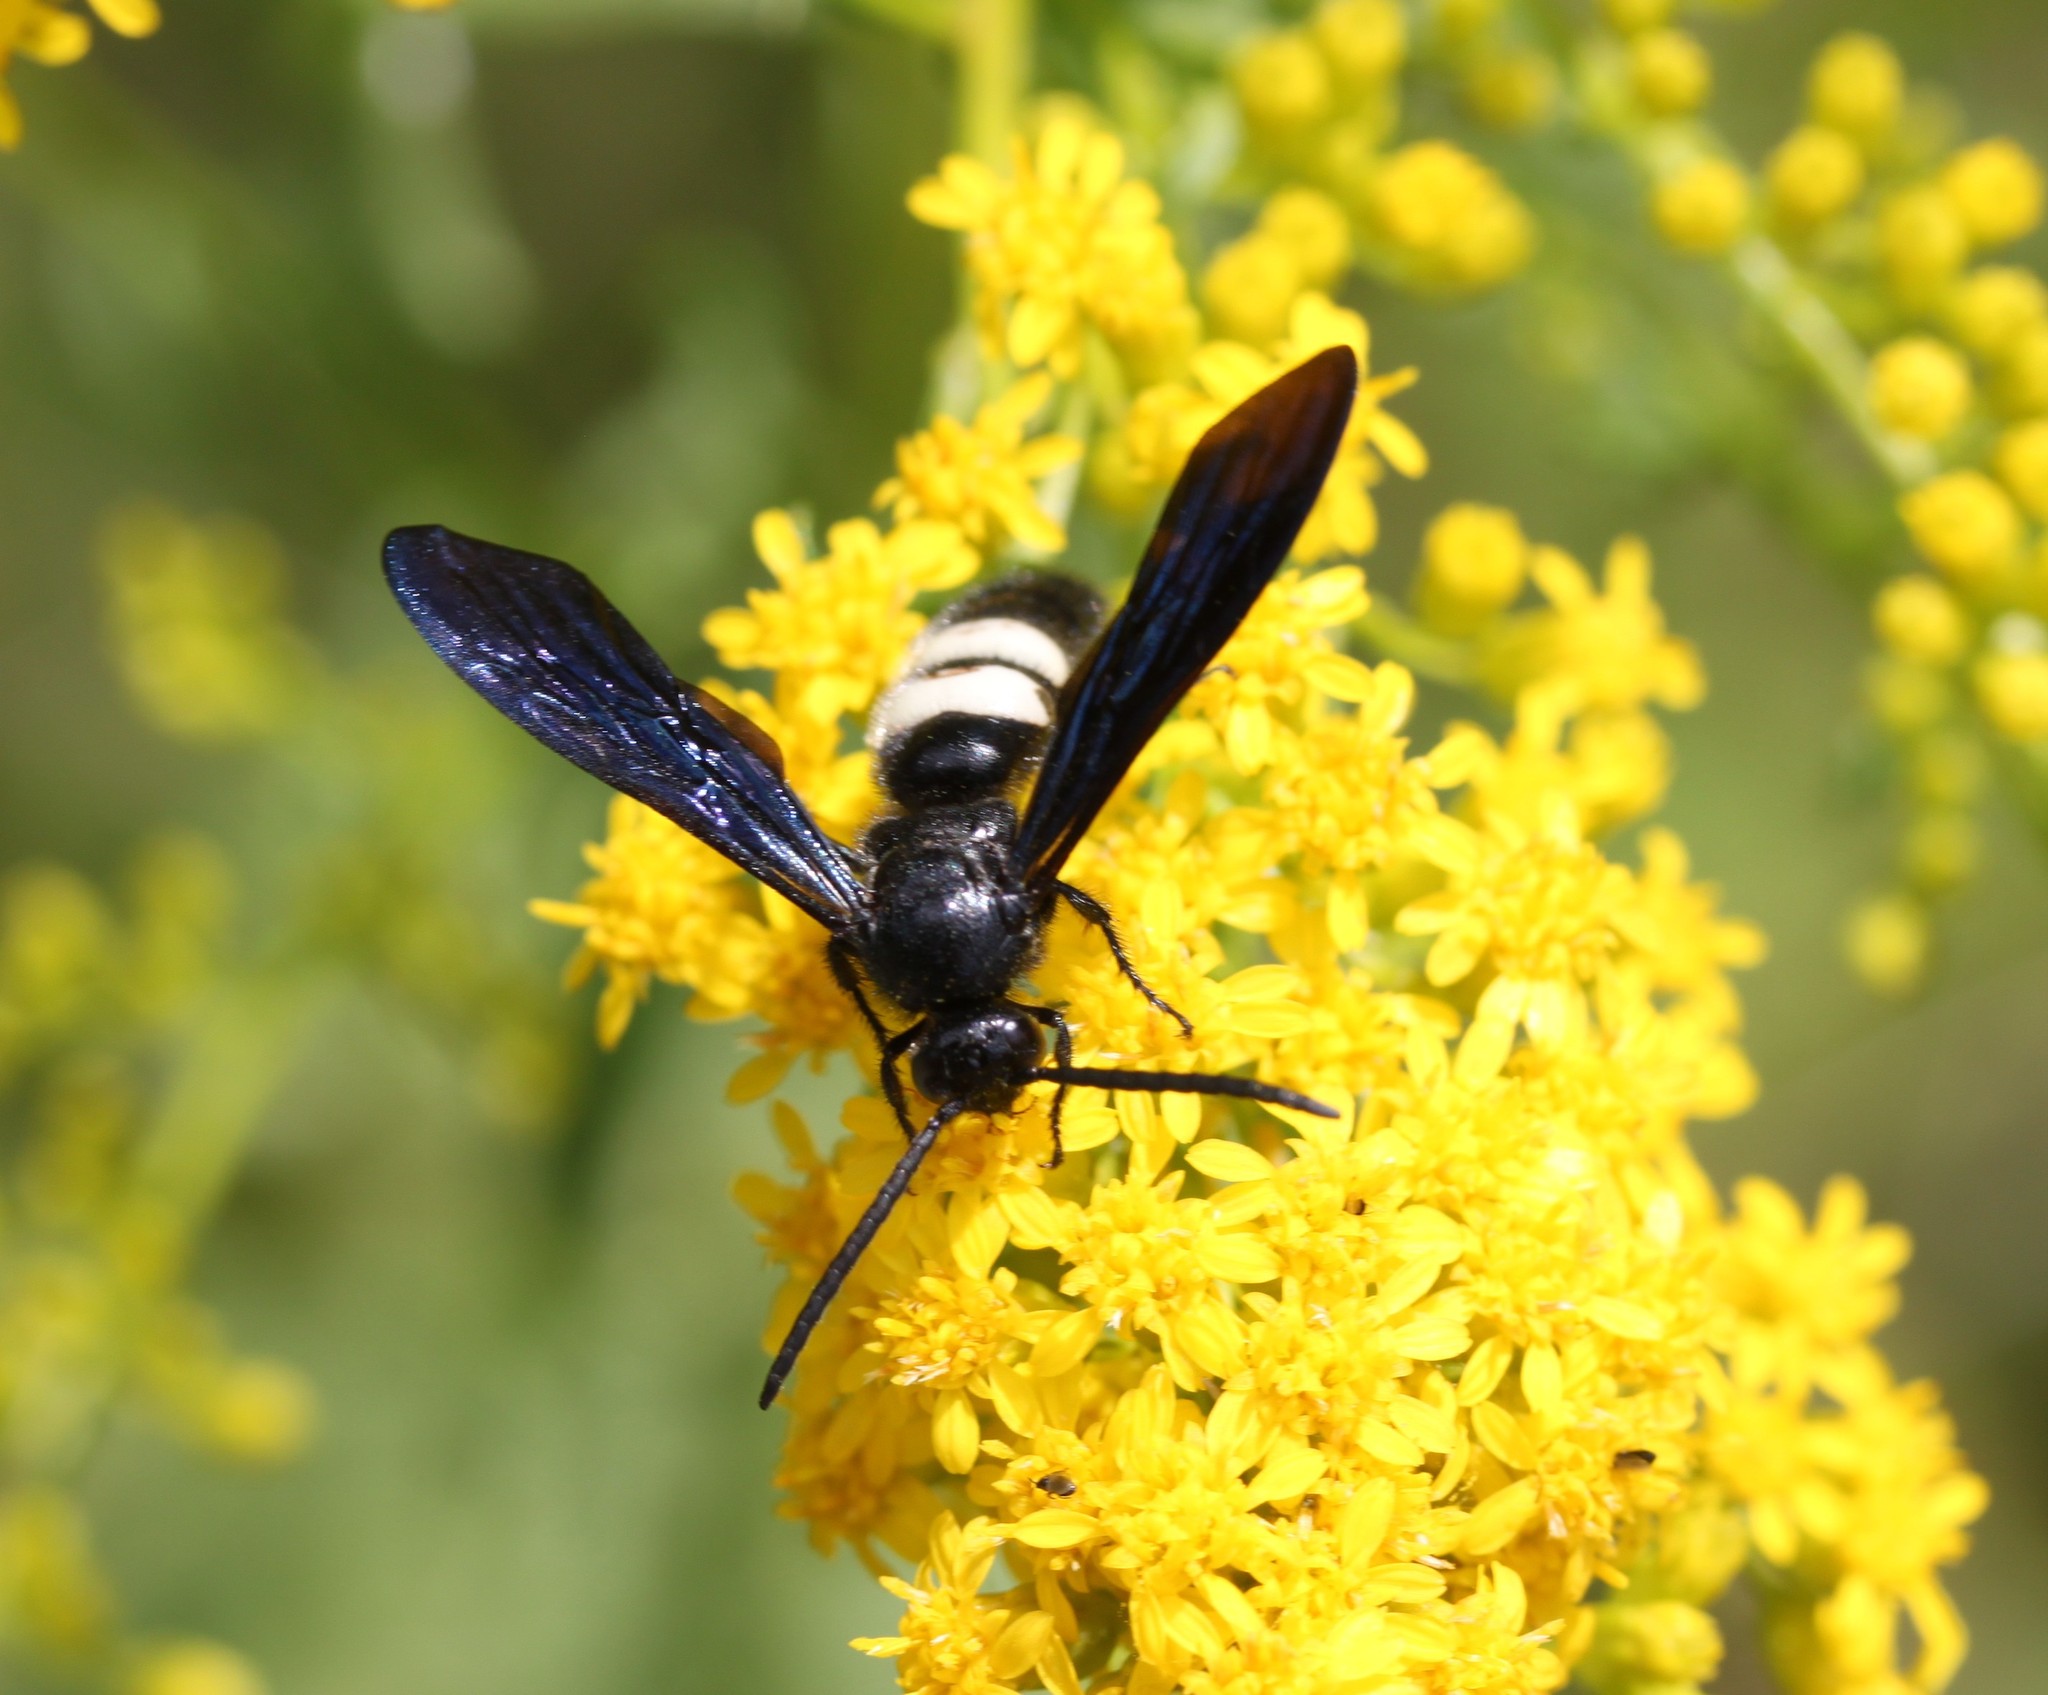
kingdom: Animalia
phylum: Arthropoda
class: Insecta
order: Hymenoptera
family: Scoliidae
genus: Scolia
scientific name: Scolia bicincta
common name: Double-banded scoliid wasp
